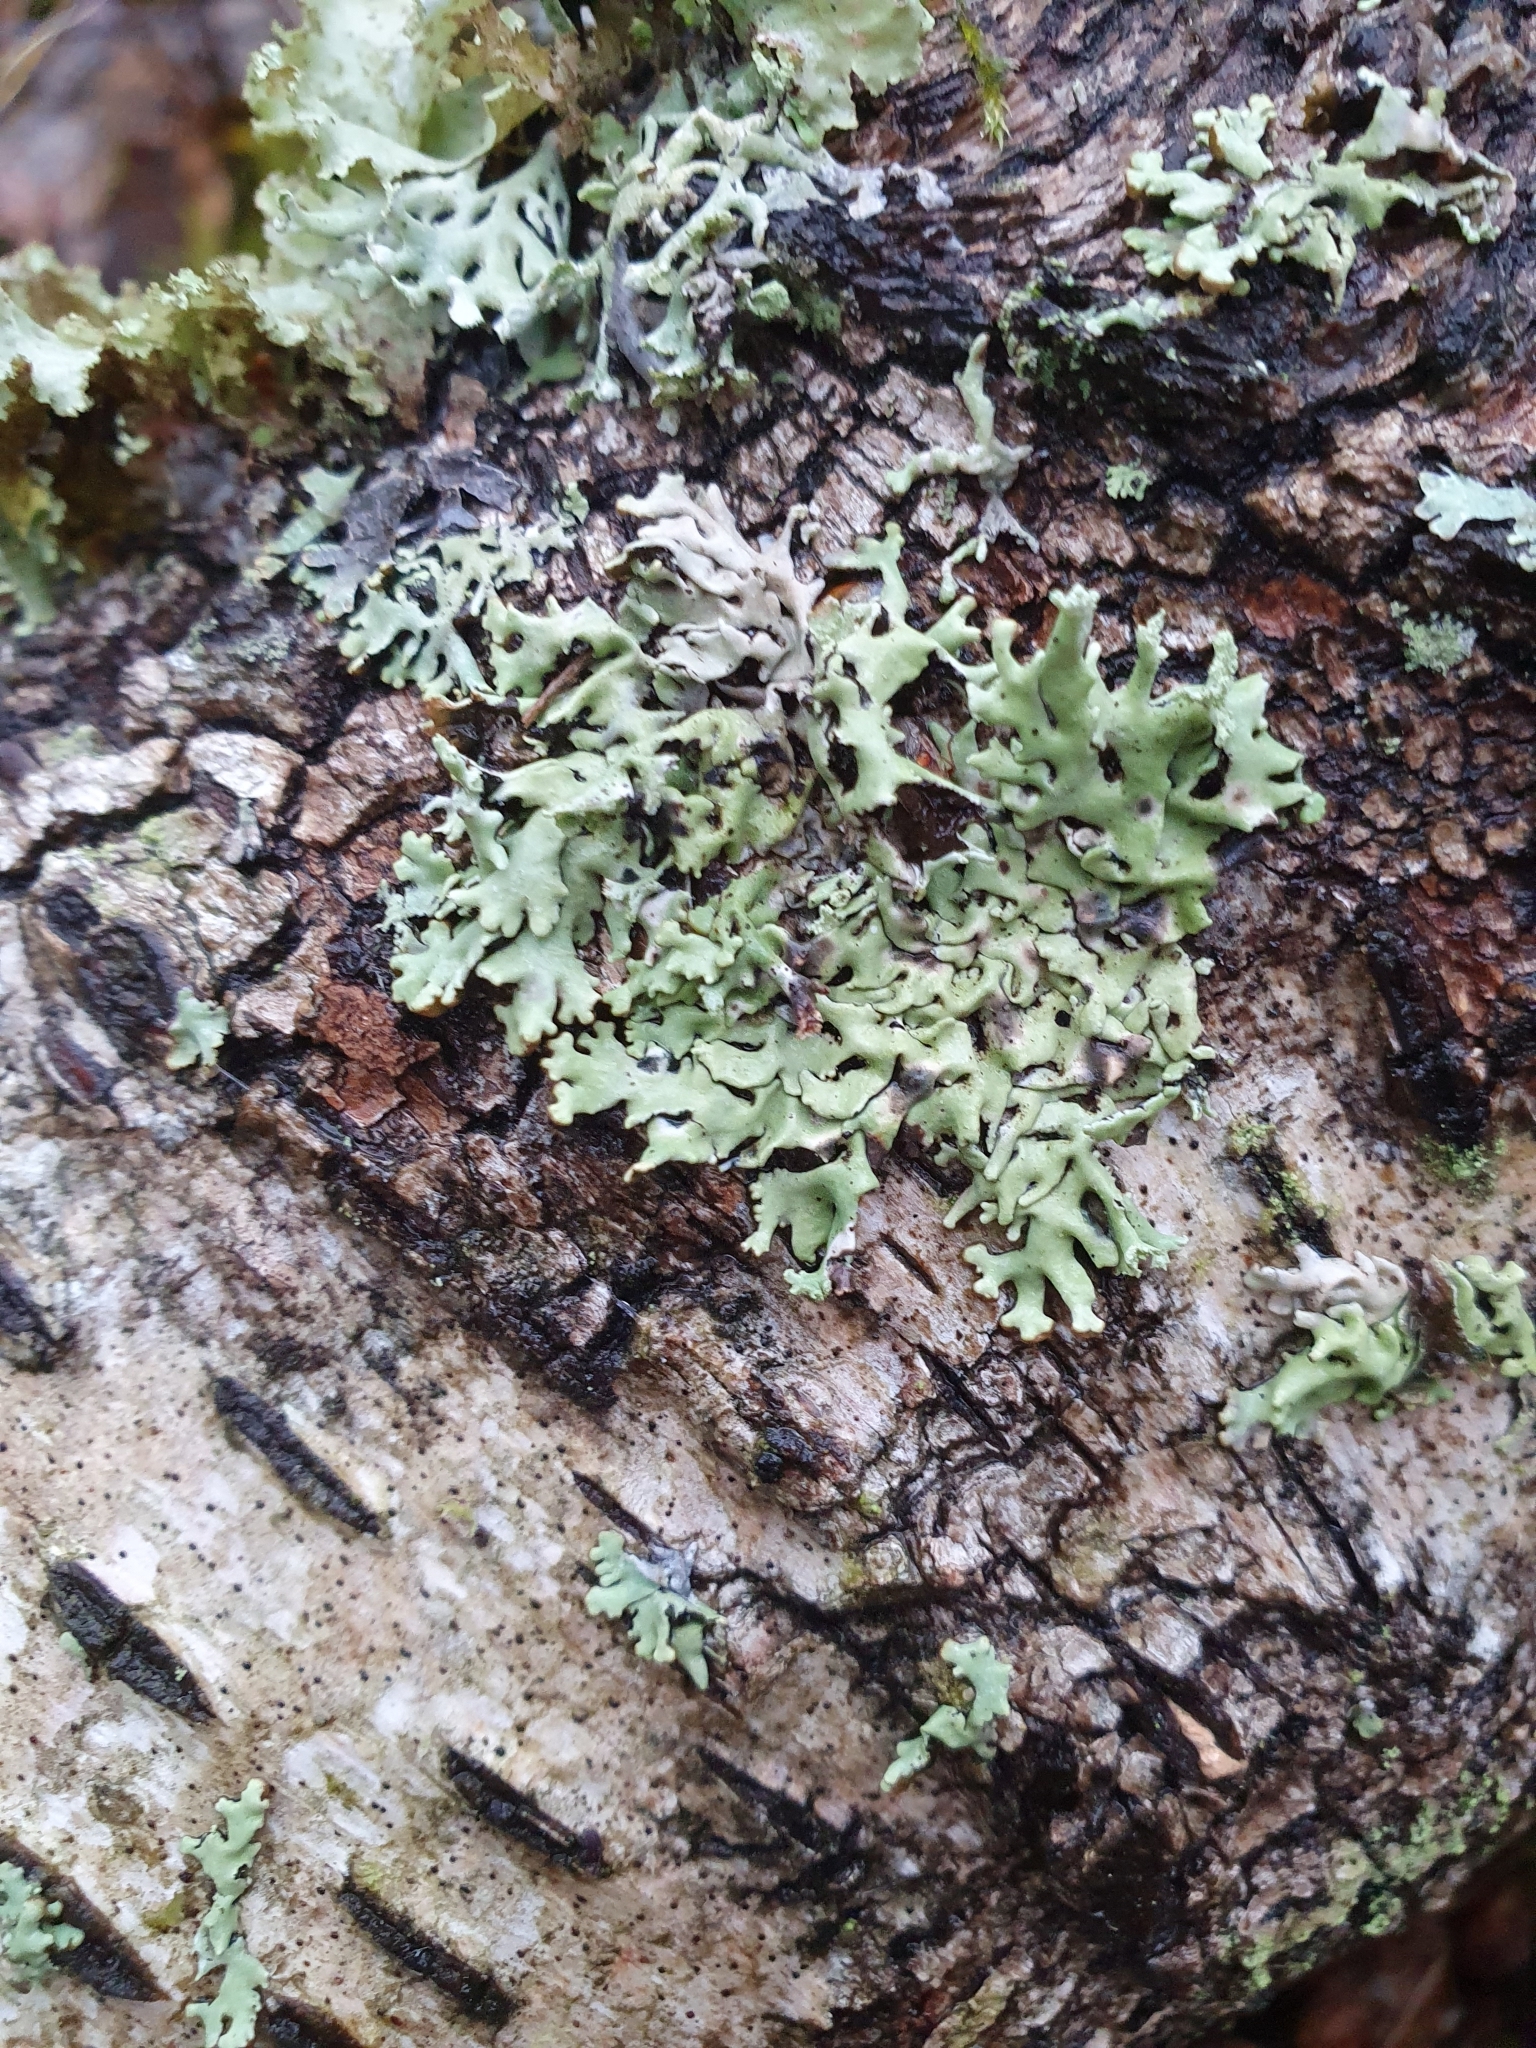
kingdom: Fungi
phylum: Ascomycota
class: Lecanoromycetes
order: Lecanorales
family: Parmeliaceae
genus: Hypogymnia
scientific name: Hypogymnia physodes
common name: Dark crottle
